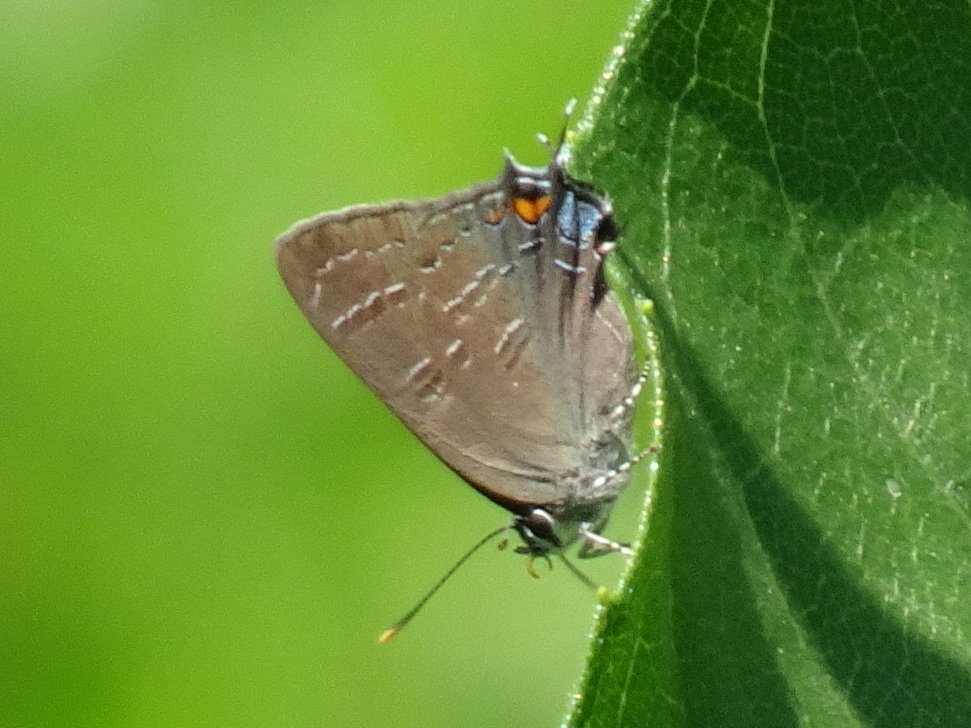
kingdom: Animalia
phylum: Arthropoda
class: Insecta
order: Lepidoptera
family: Lycaenidae
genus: Satyrium
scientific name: Satyrium calanus
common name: Banded hairstreak
